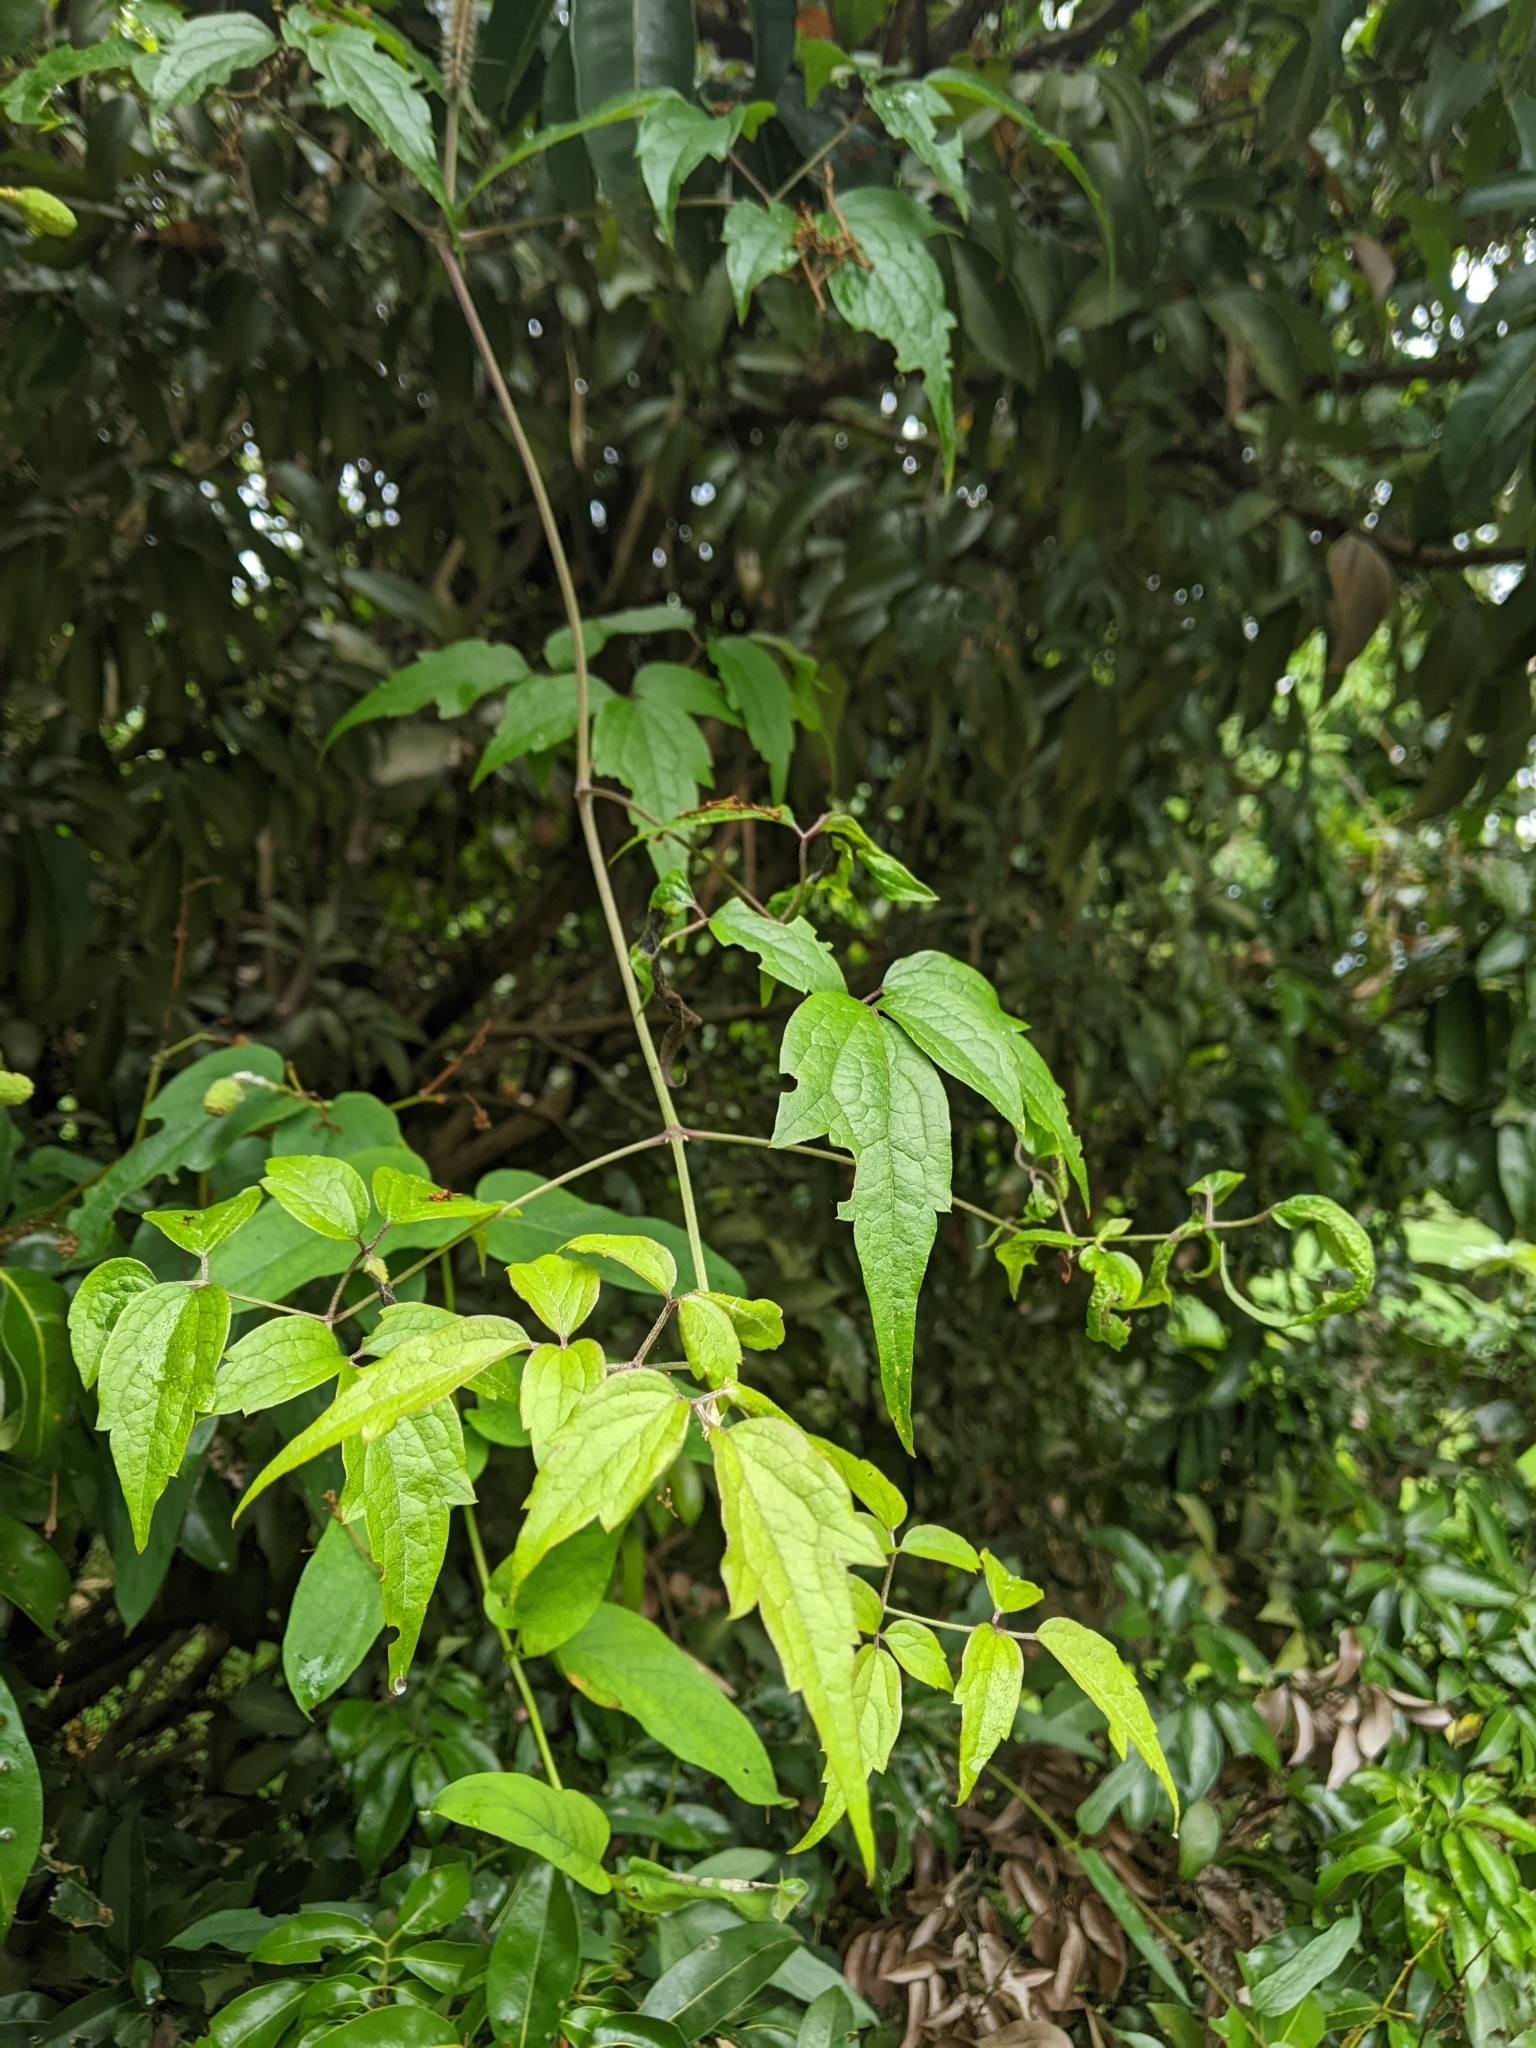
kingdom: Plantae
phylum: Tracheophyta
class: Magnoliopsida
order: Ranunculales
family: Ranunculaceae
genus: Clematis
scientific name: Clematis grata
